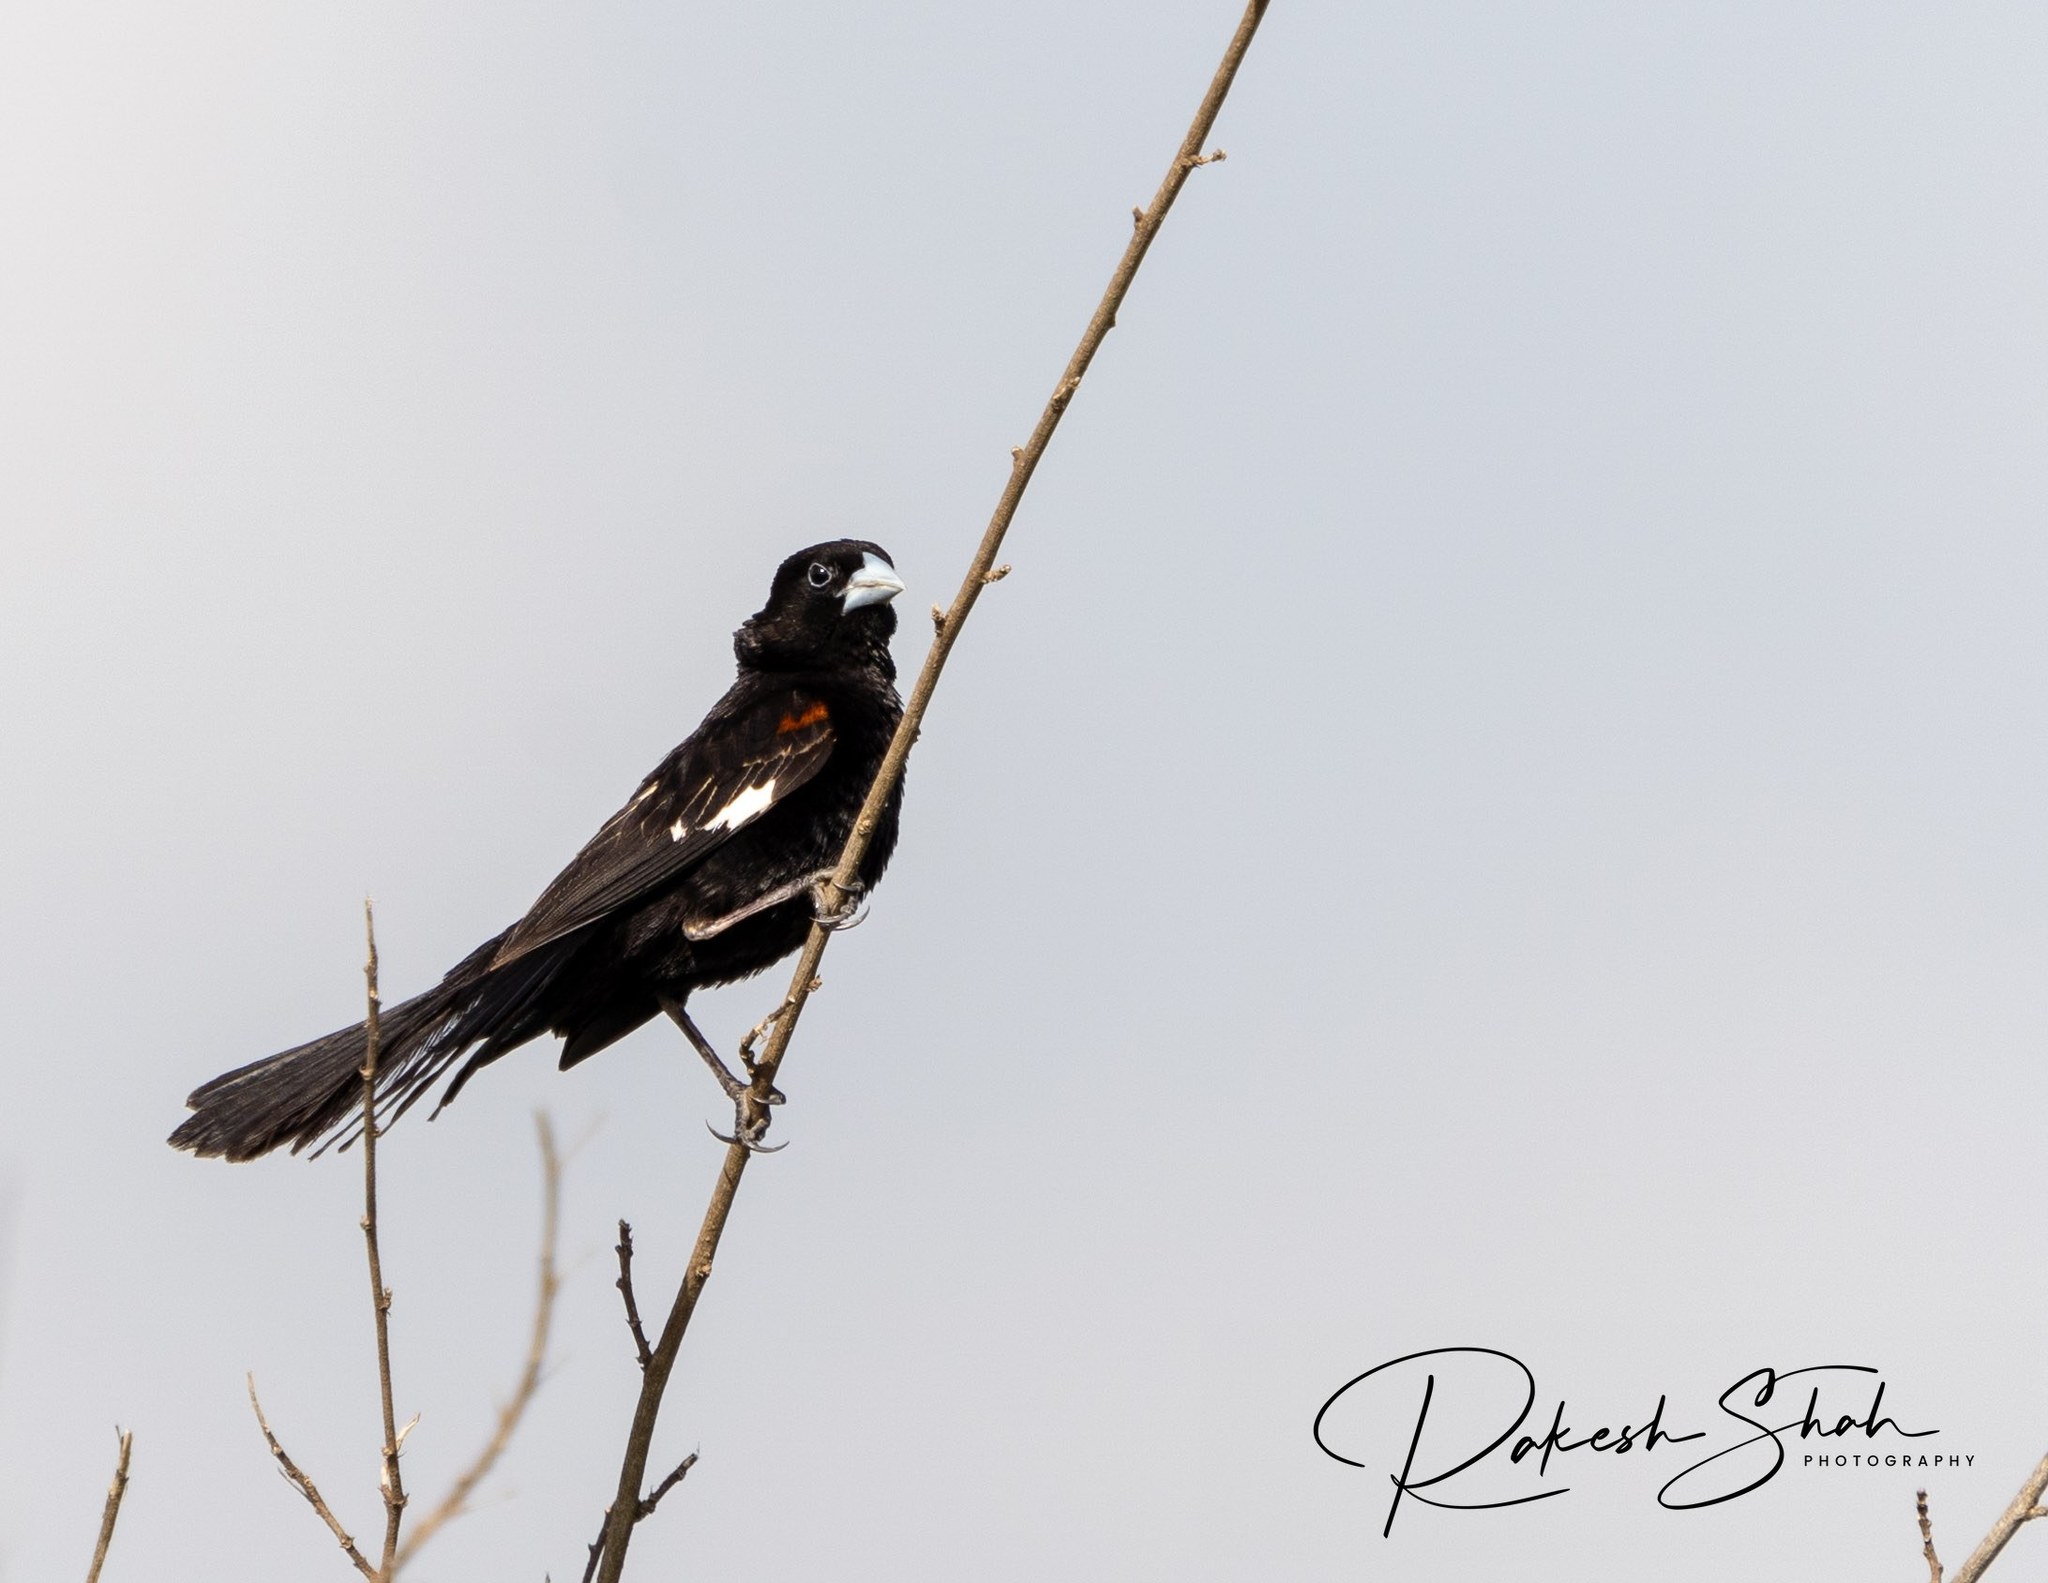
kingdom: Animalia
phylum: Chordata
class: Aves
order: Passeriformes
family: Ploceidae
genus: Euplectes
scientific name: Euplectes albonotatus
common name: White-winged widowbird
